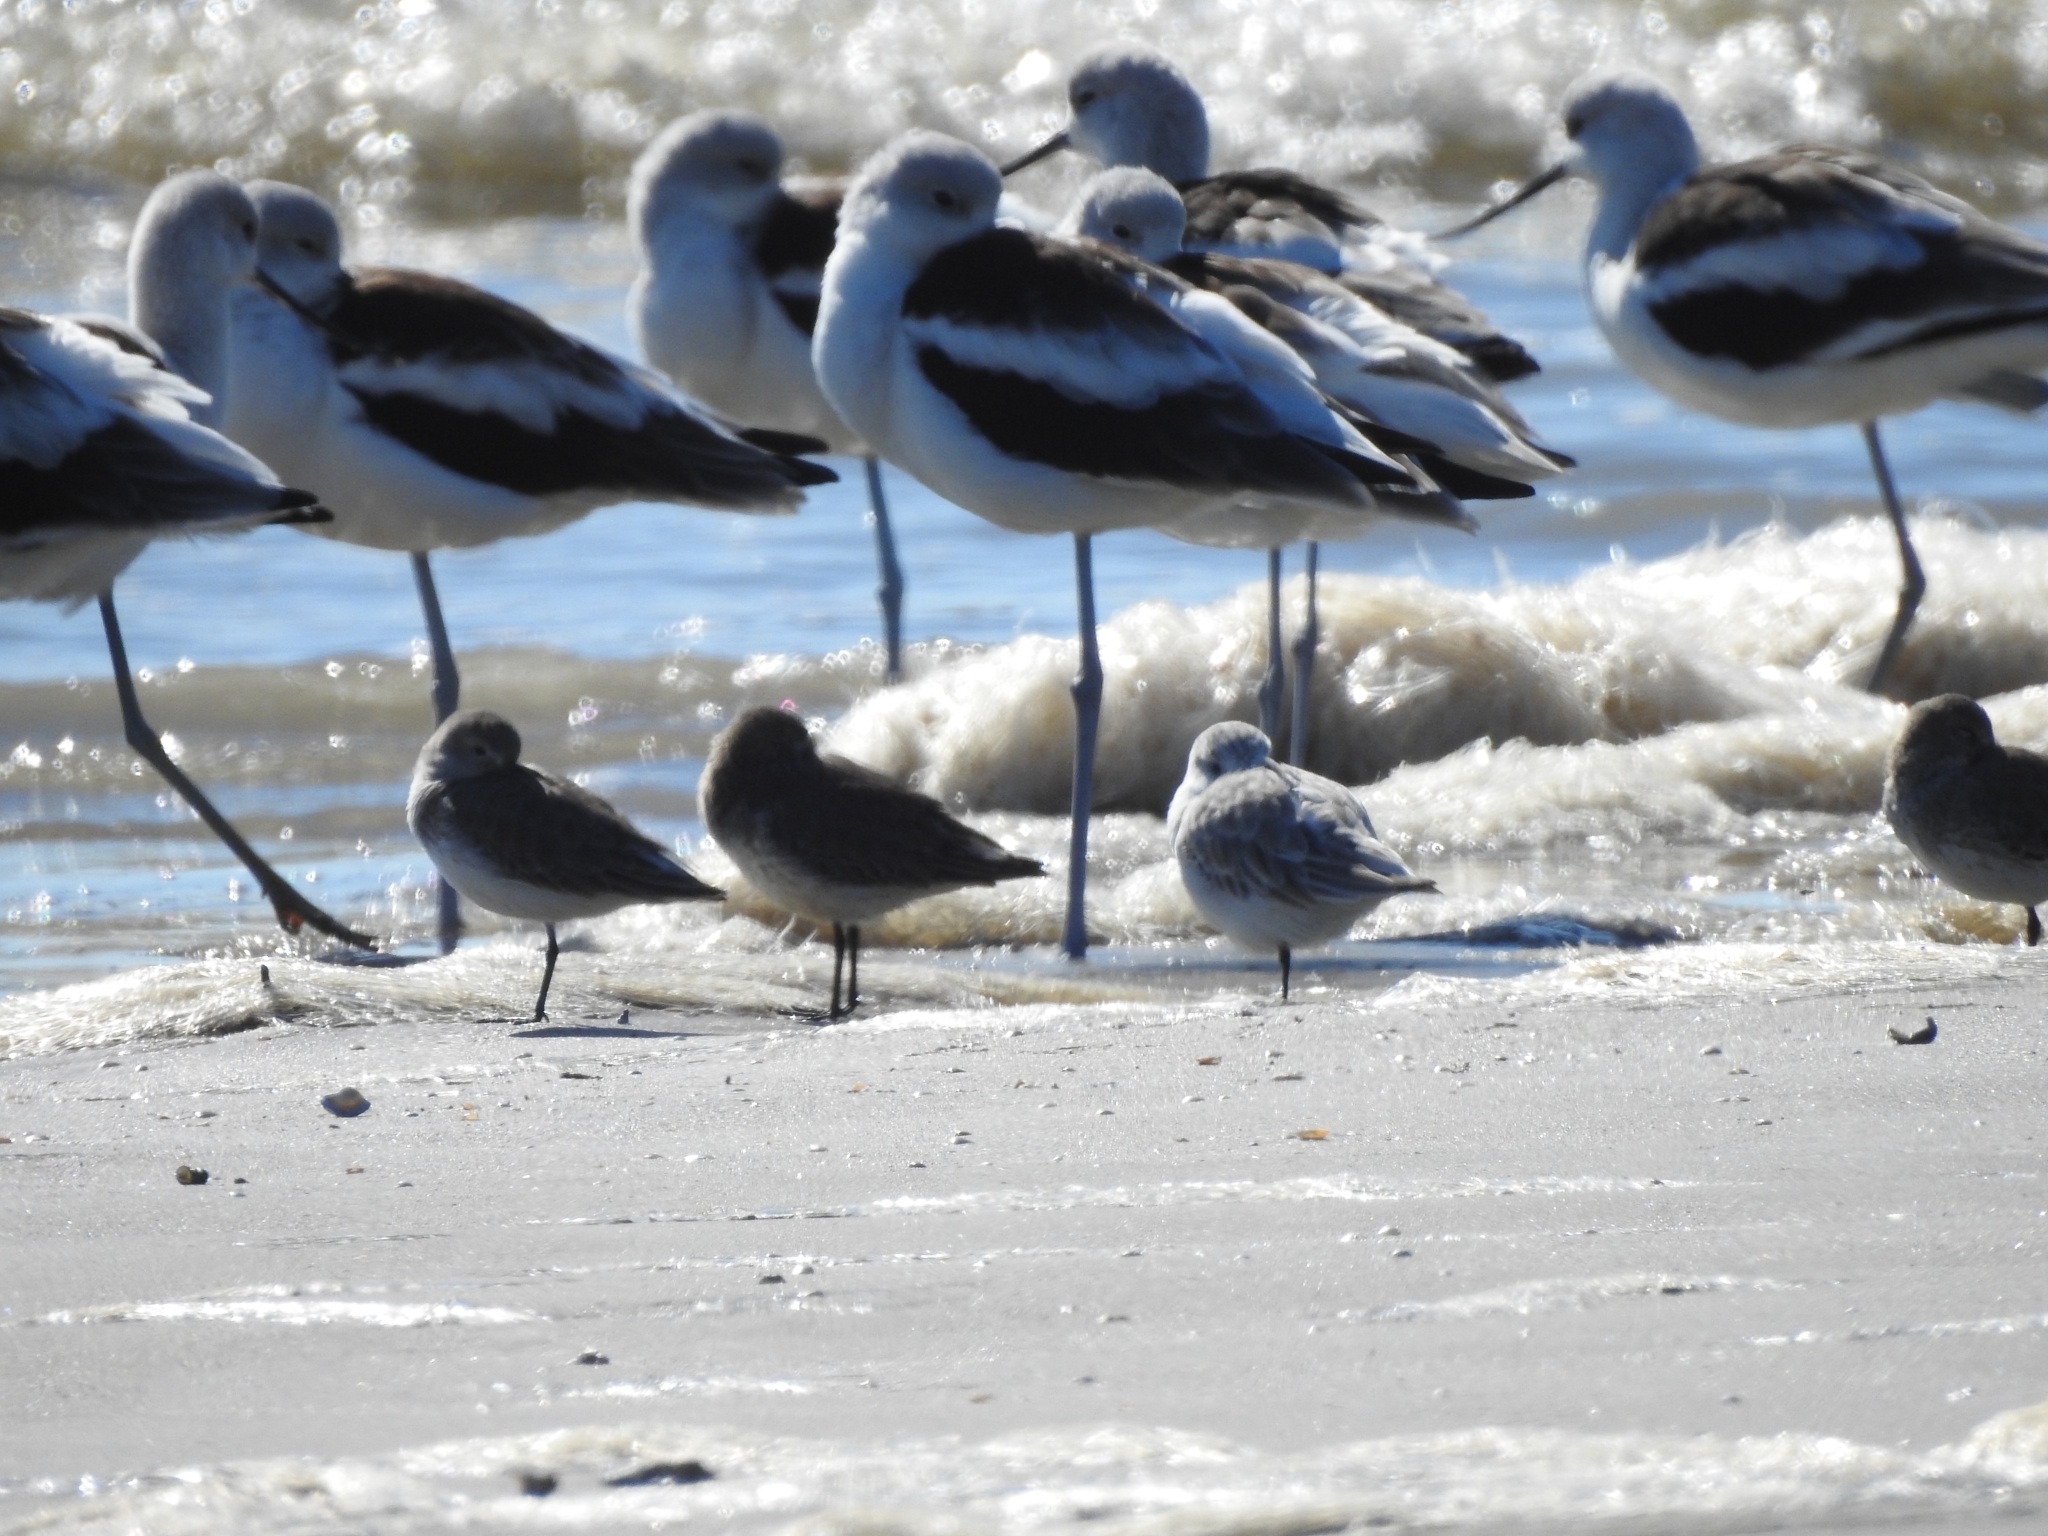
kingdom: Animalia
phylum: Chordata
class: Aves
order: Charadriiformes
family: Scolopacidae
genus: Calidris
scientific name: Calidris alba
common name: Sanderling
